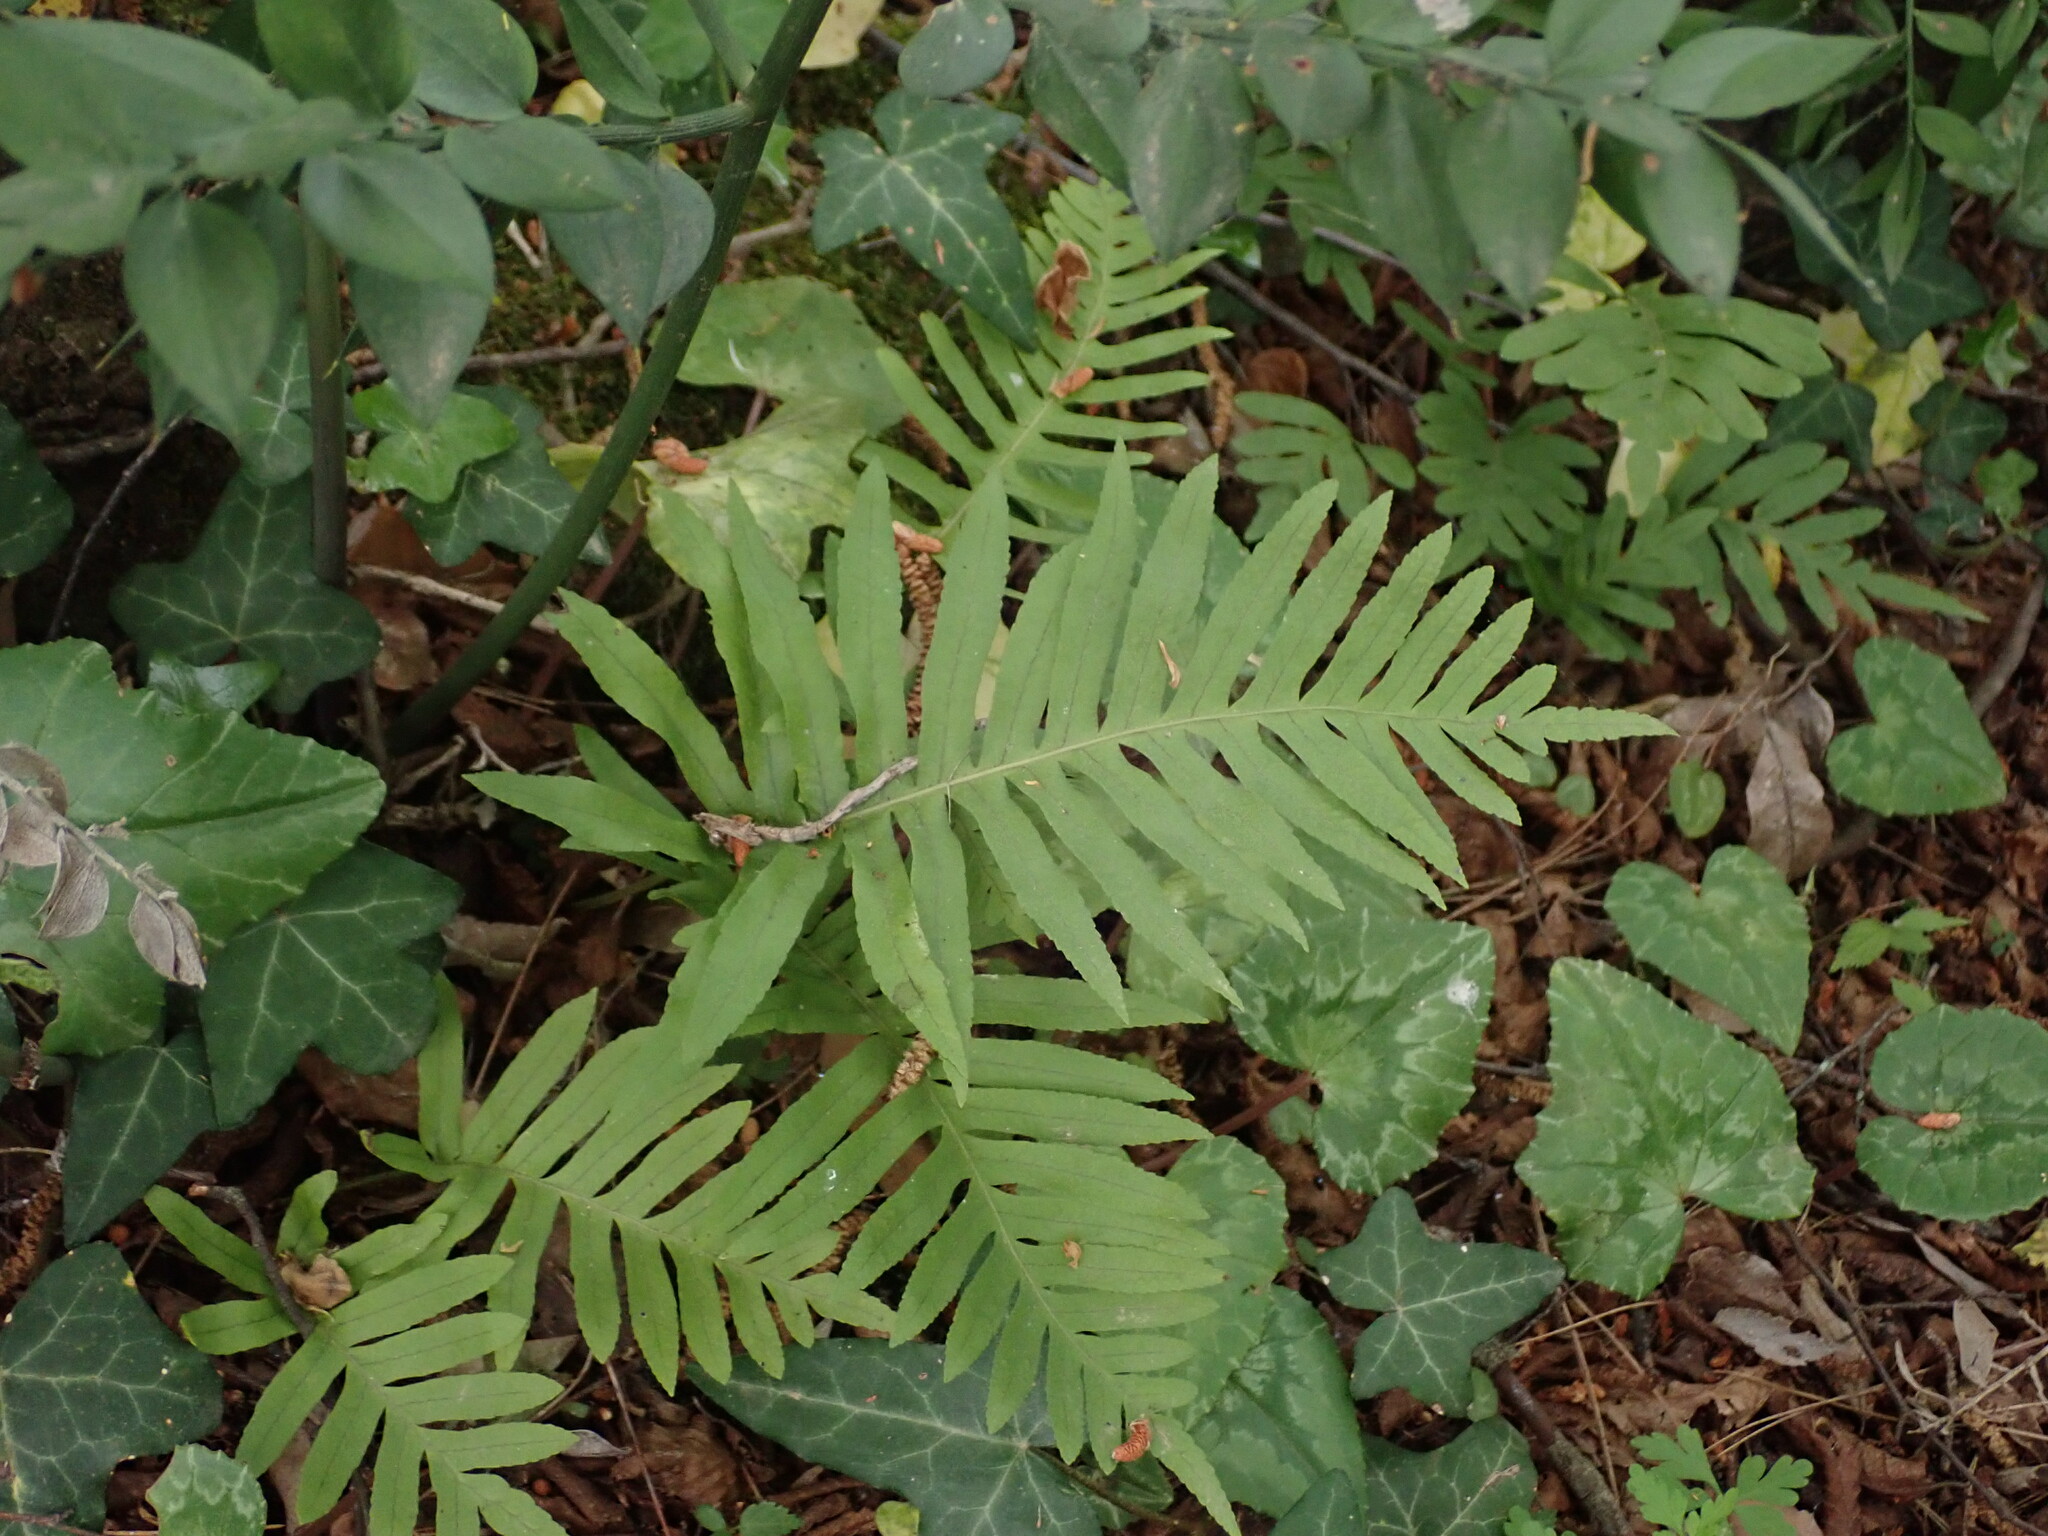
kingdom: Plantae
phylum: Tracheophyta
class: Polypodiopsida
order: Polypodiales
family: Polypodiaceae
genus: Polypodium
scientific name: Polypodium cambricum
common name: Southern polypody
